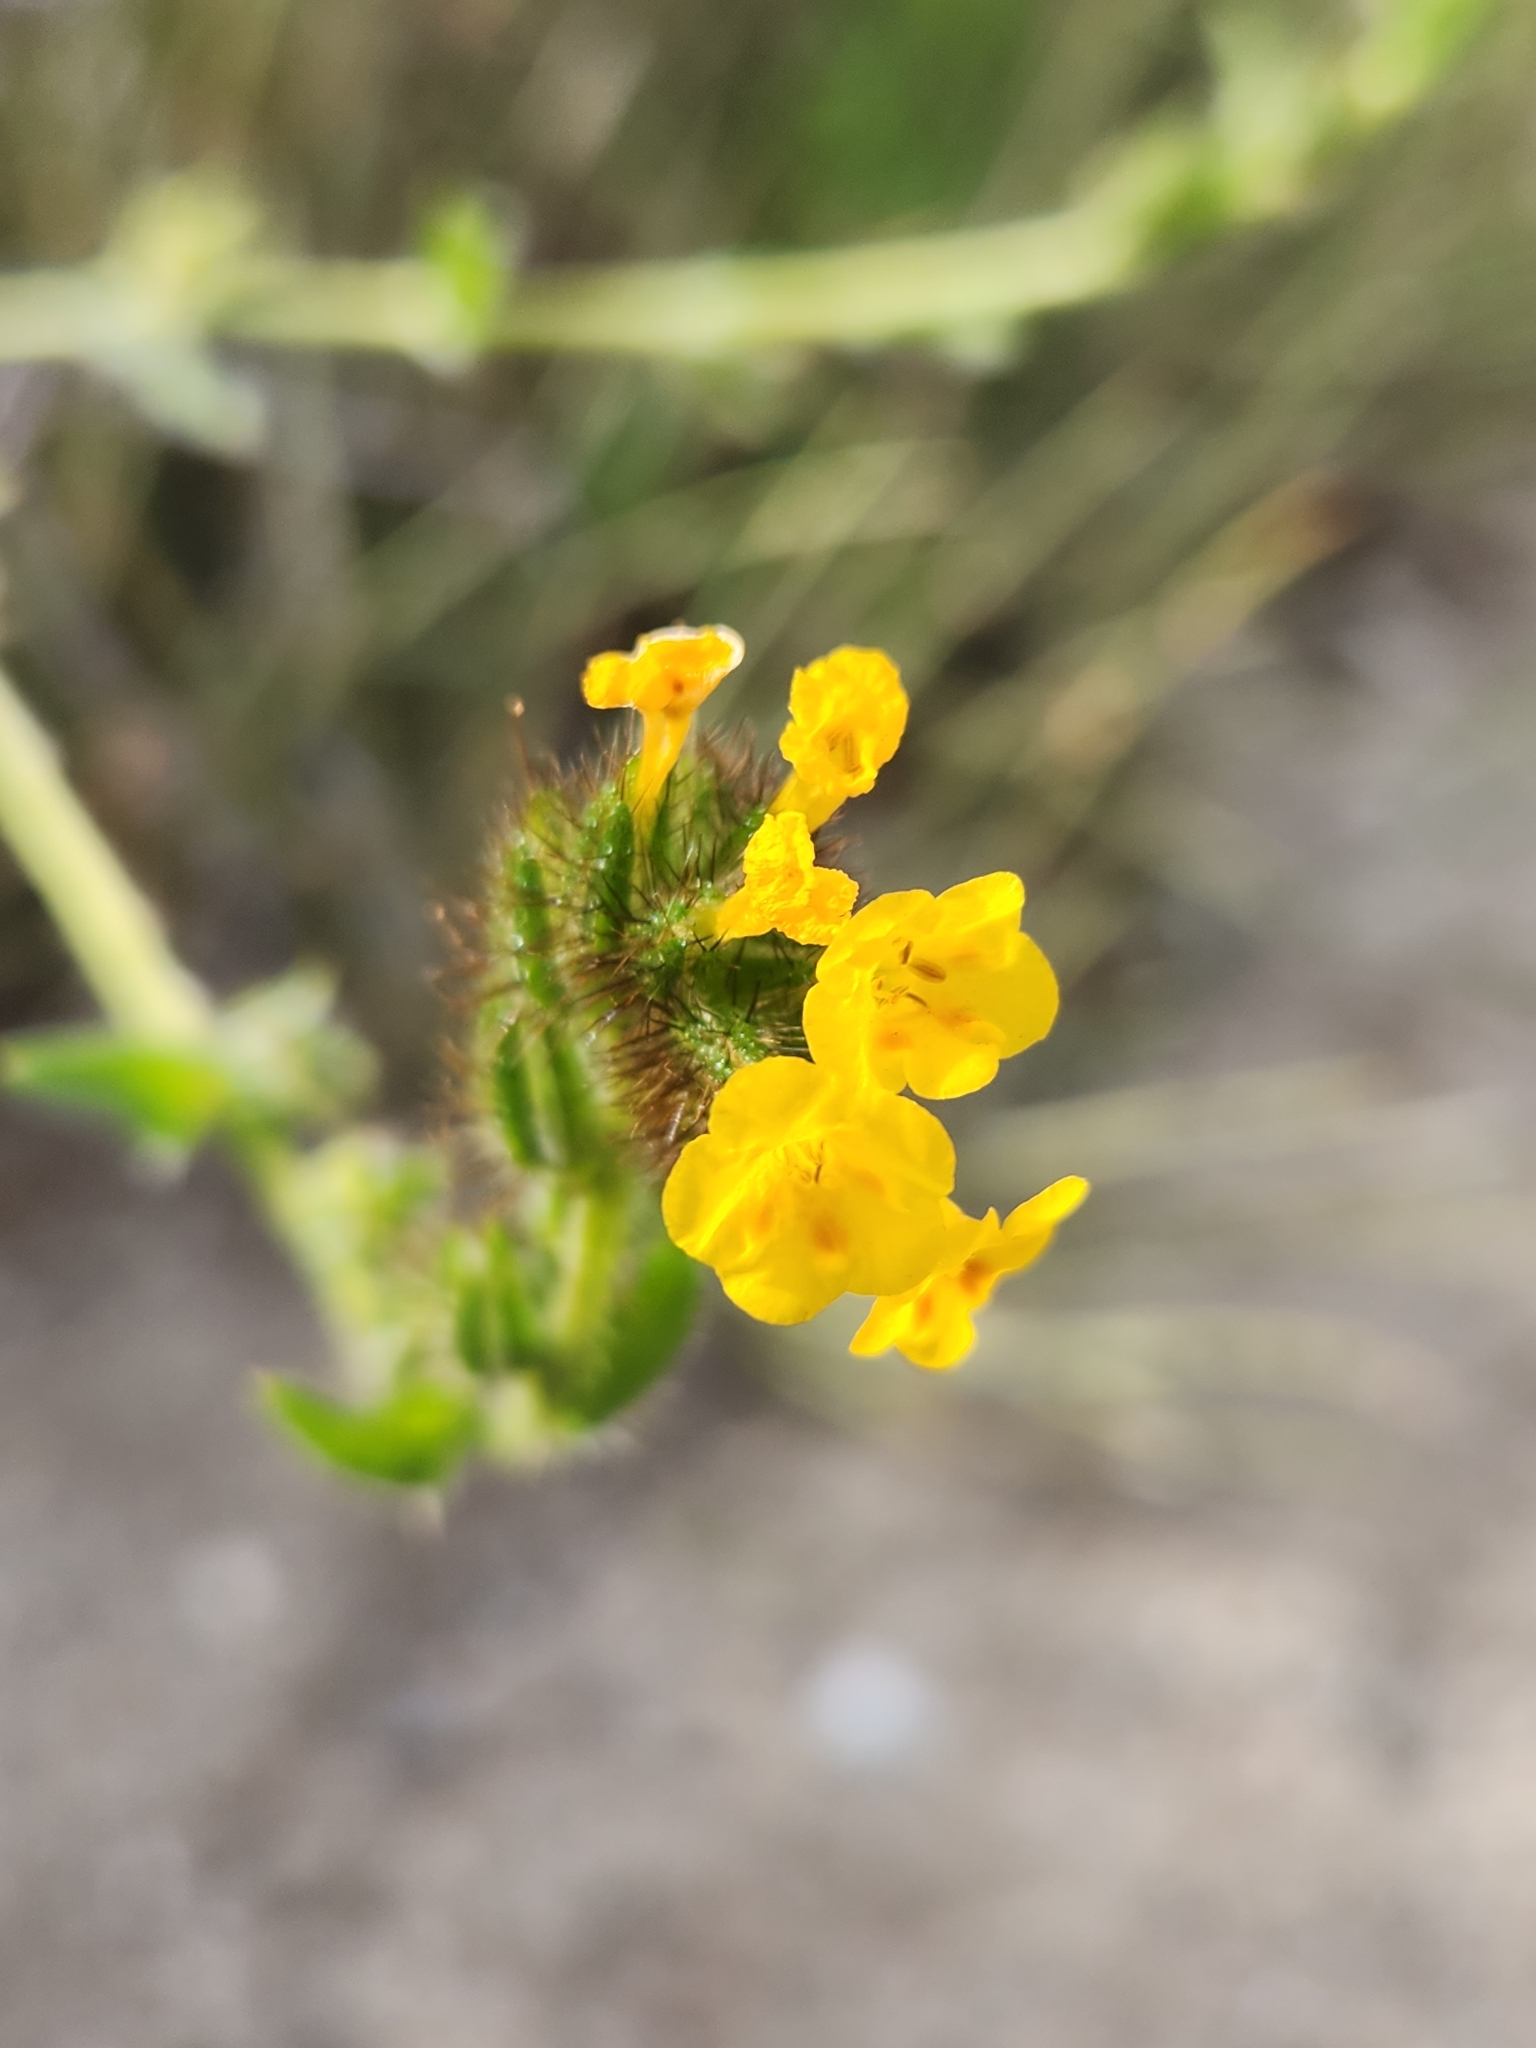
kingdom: Plantae
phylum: Tracheophyta
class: Magnoliopsida
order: Boraginales
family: Boraginaceae
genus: Amsinckia
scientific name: Amsinckia menziesii
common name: Menzies' fiddleneck
